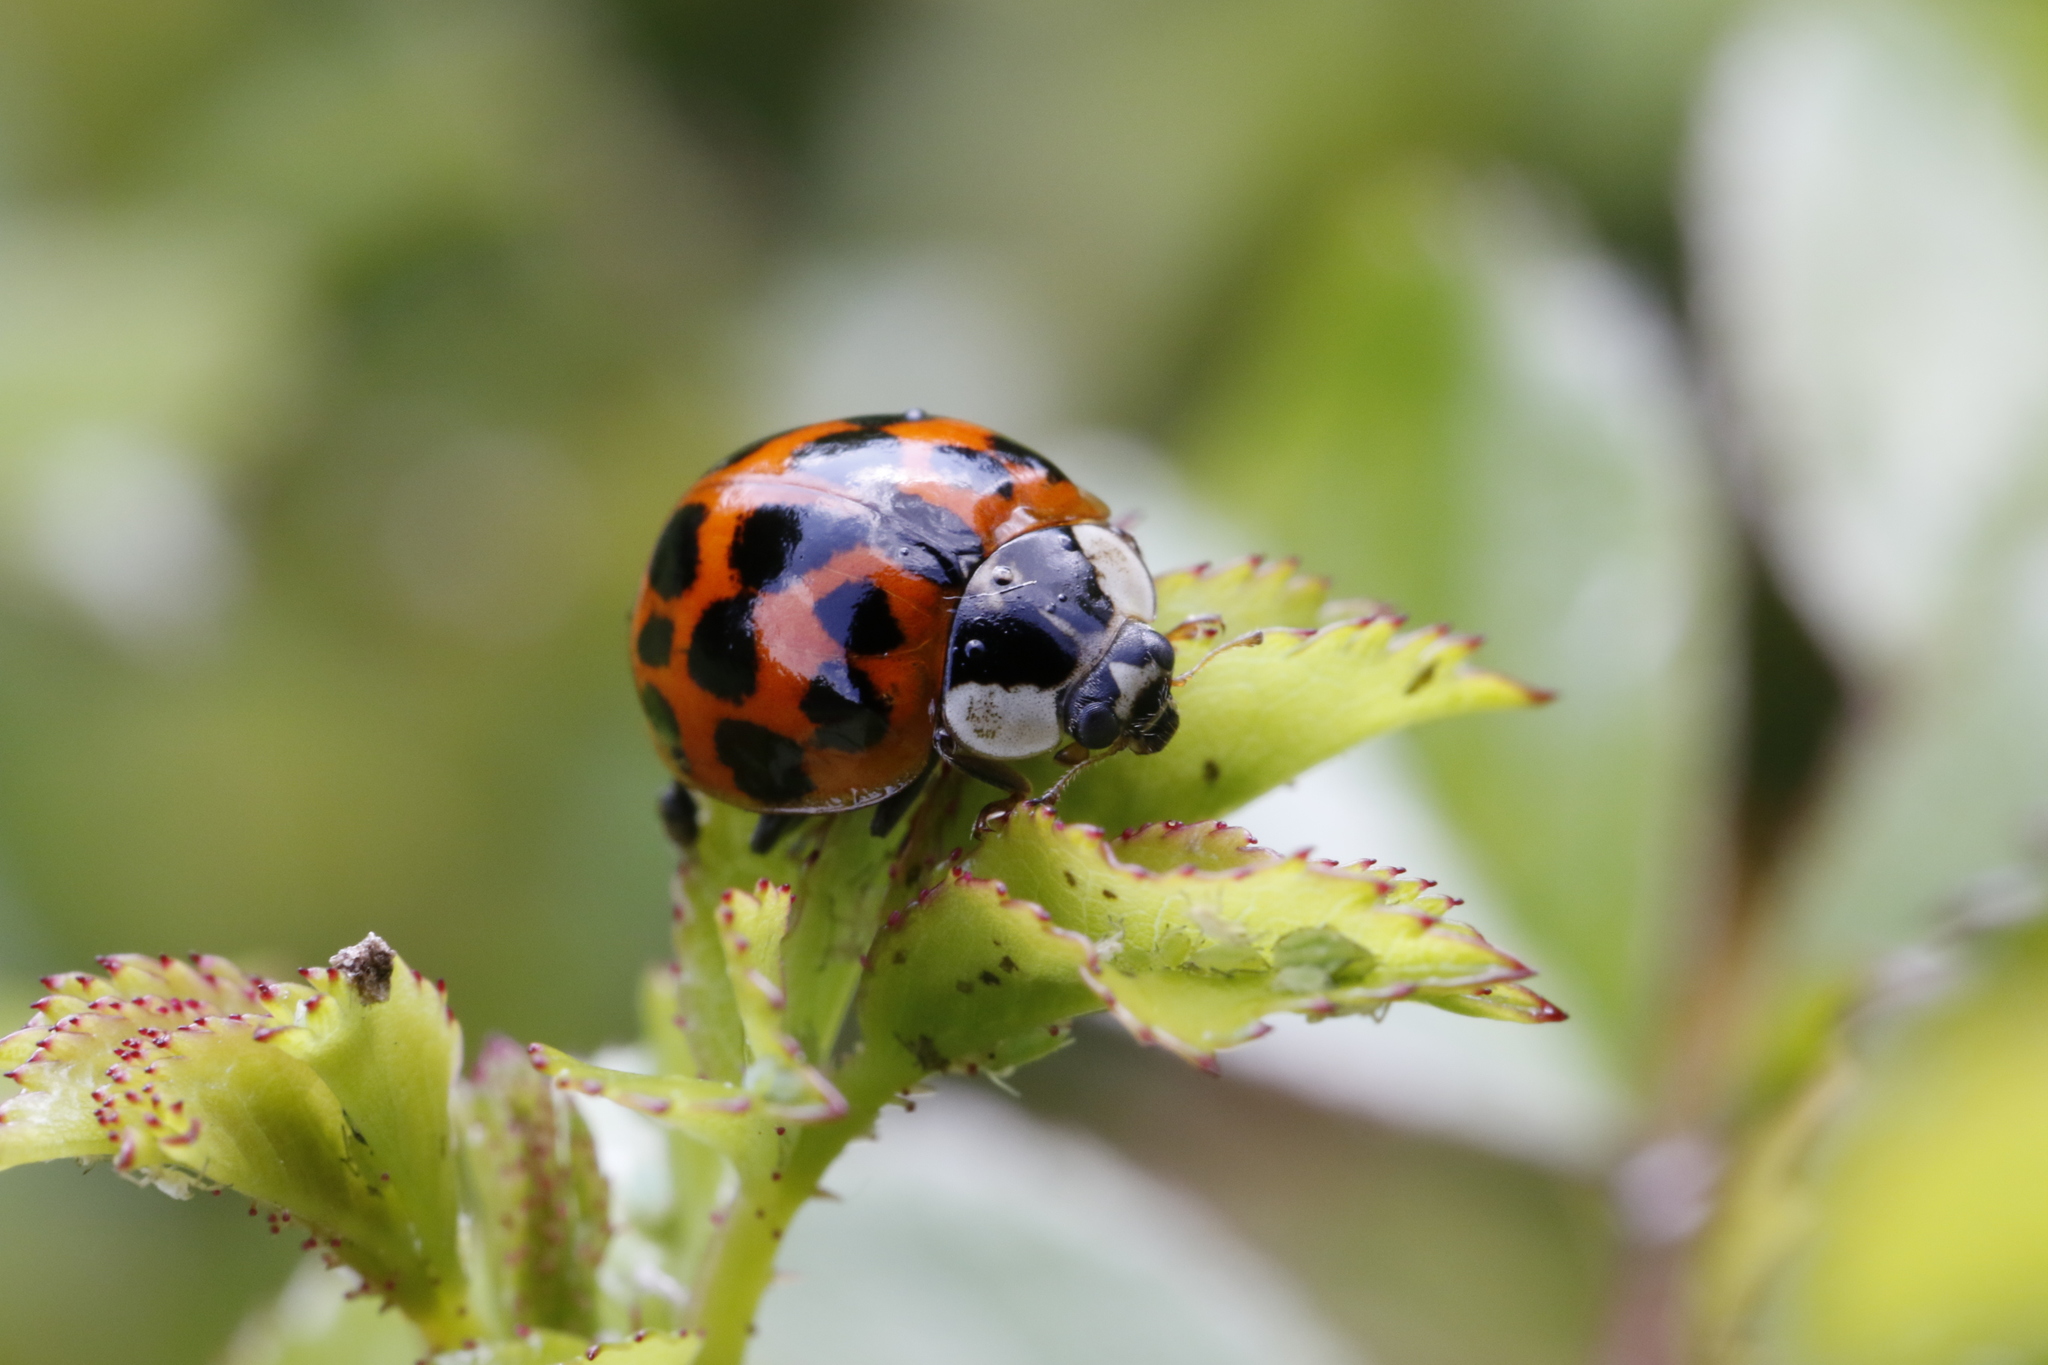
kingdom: Animalia
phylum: Arthropoda
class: Insecta
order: Coleoptera
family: Coccinellidae
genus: Harmonia
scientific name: Harmonia axyridis
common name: Harlequin ladybird
